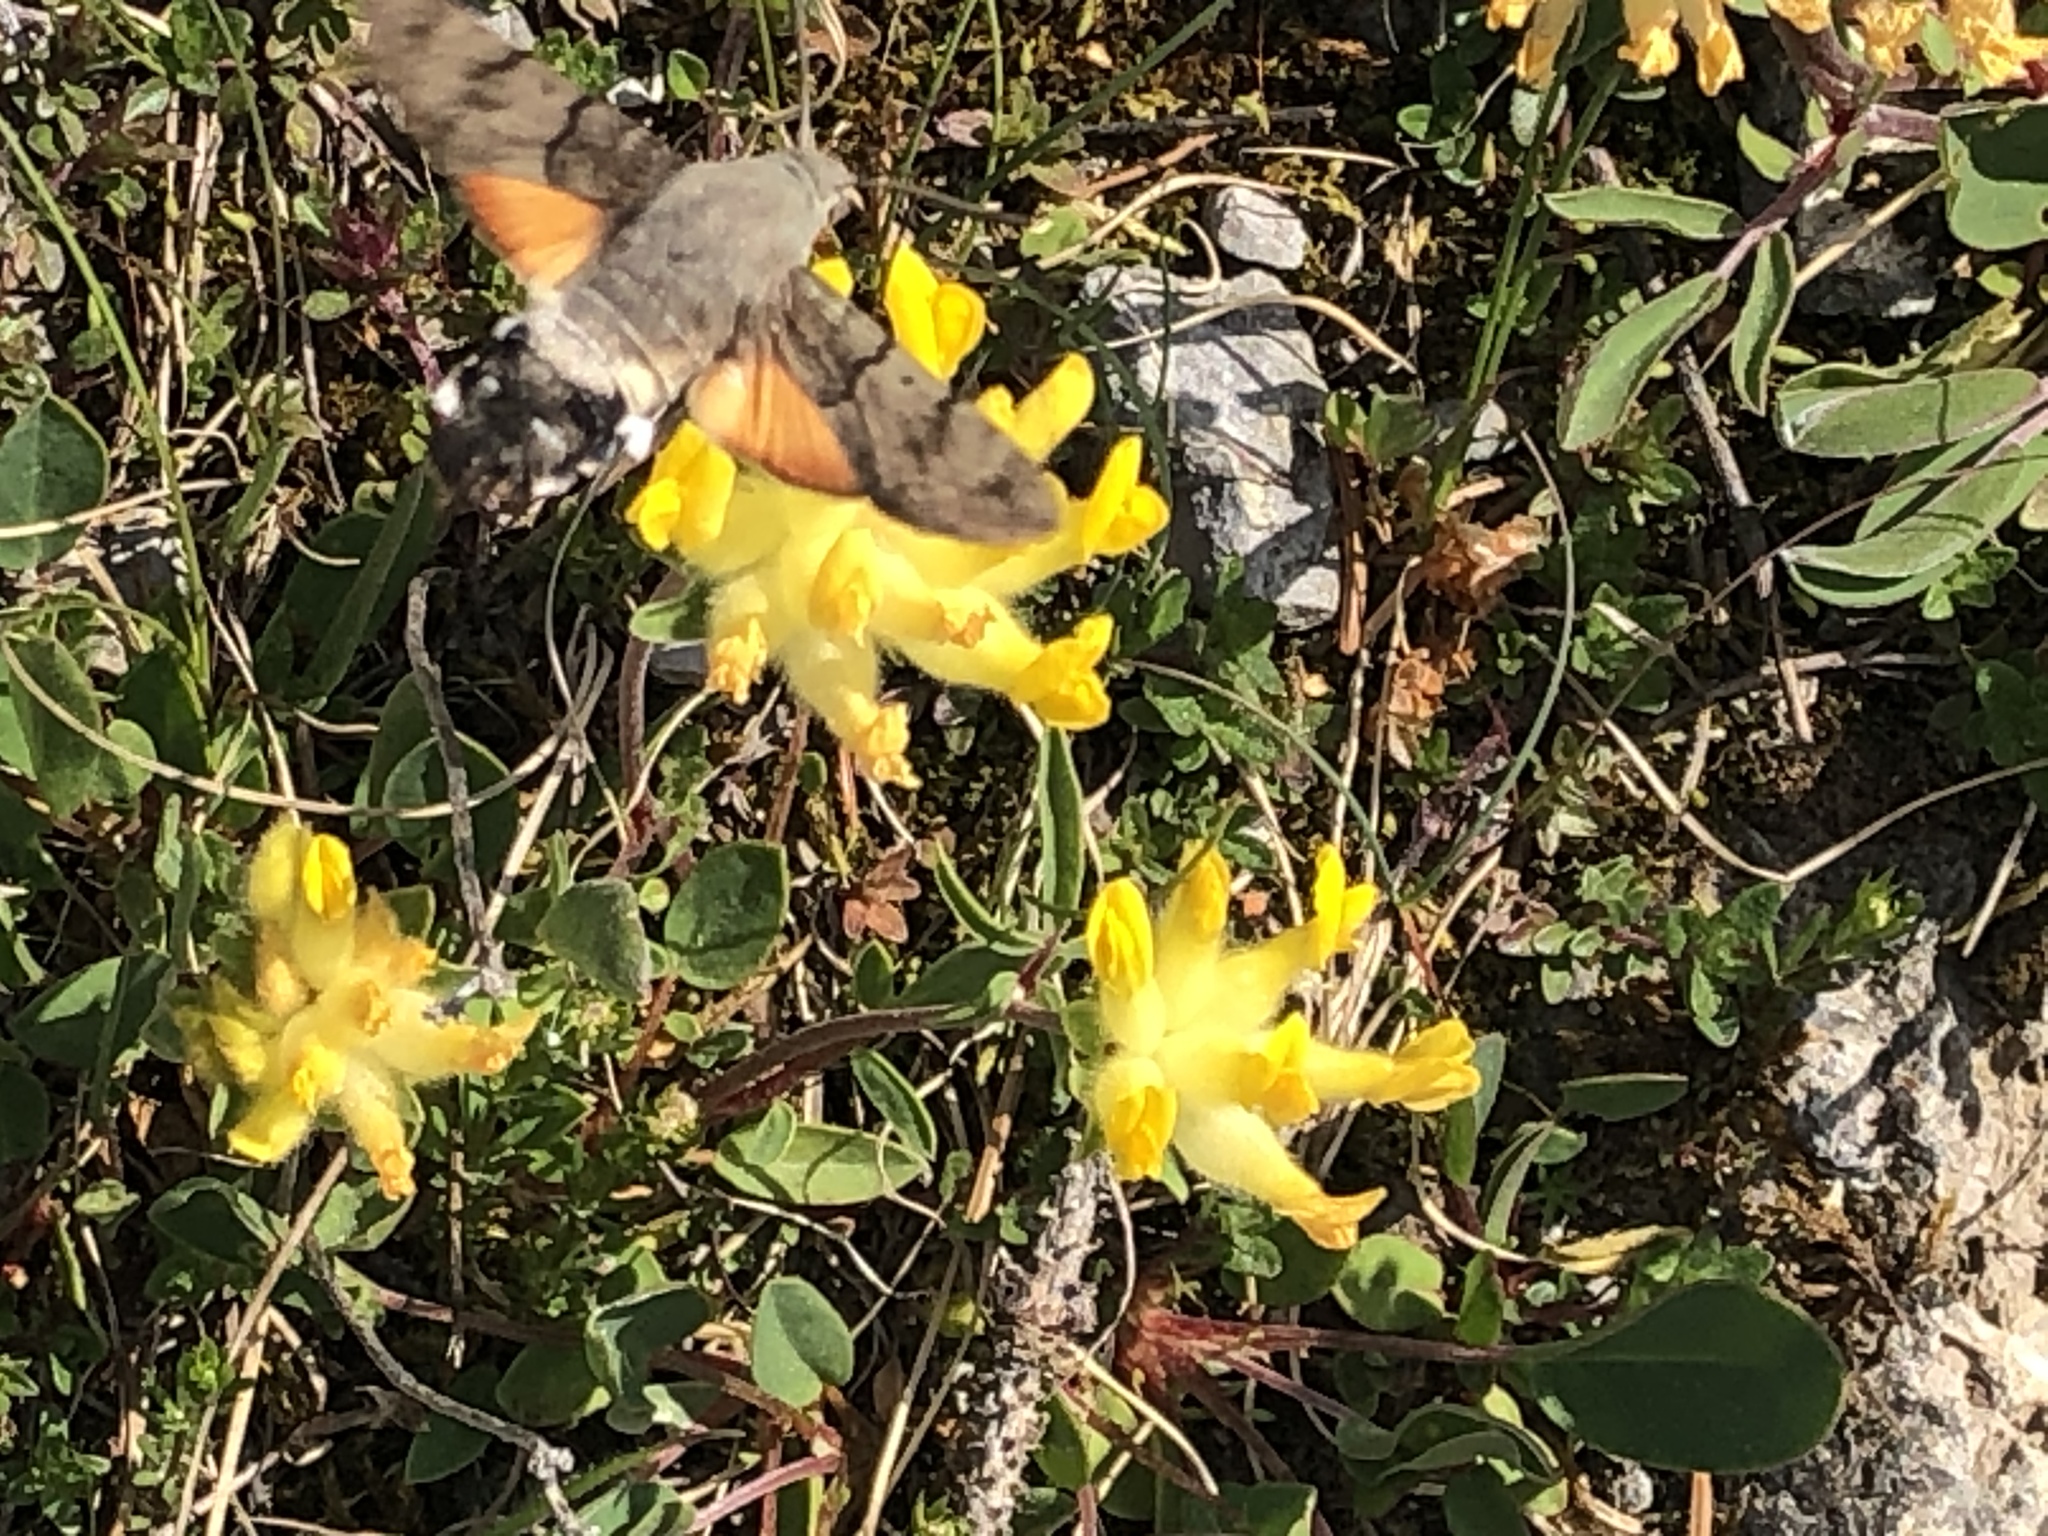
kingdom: Animalia
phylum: Arthropoda
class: Insecta
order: Lepidoptera
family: Sphingidae
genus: Macroglossum
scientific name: Macroglossum stellatarum
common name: Humming-bird hawk-moth
